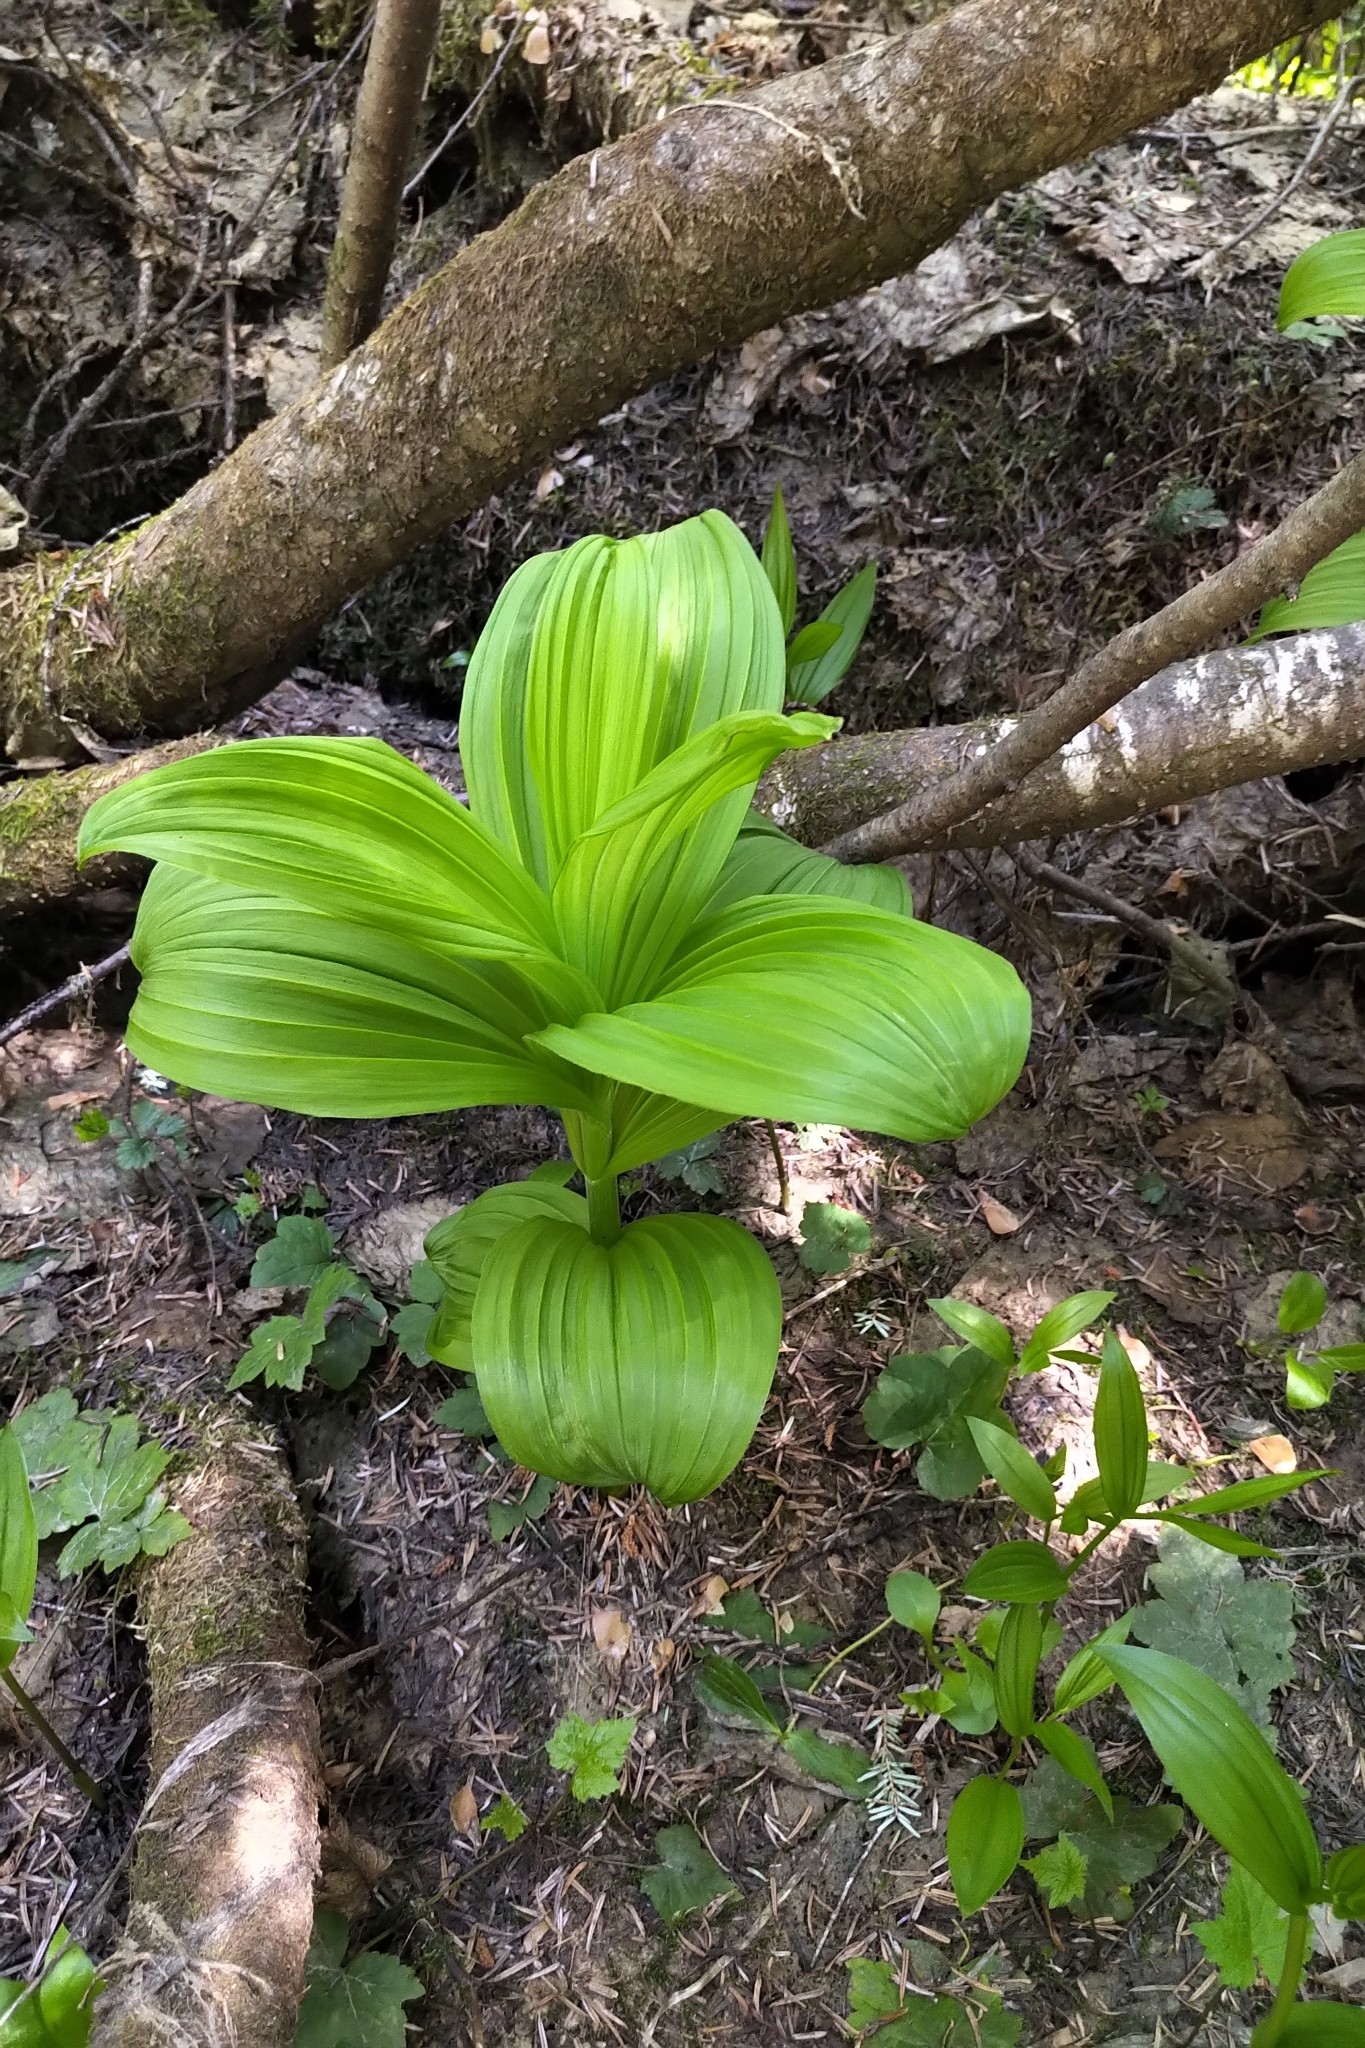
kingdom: Plantae
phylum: Tracheophyta
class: Liliopsida
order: Liliales
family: Melanthiaceae
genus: Veratrum
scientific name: Veratrum viride
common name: American false hellebore
